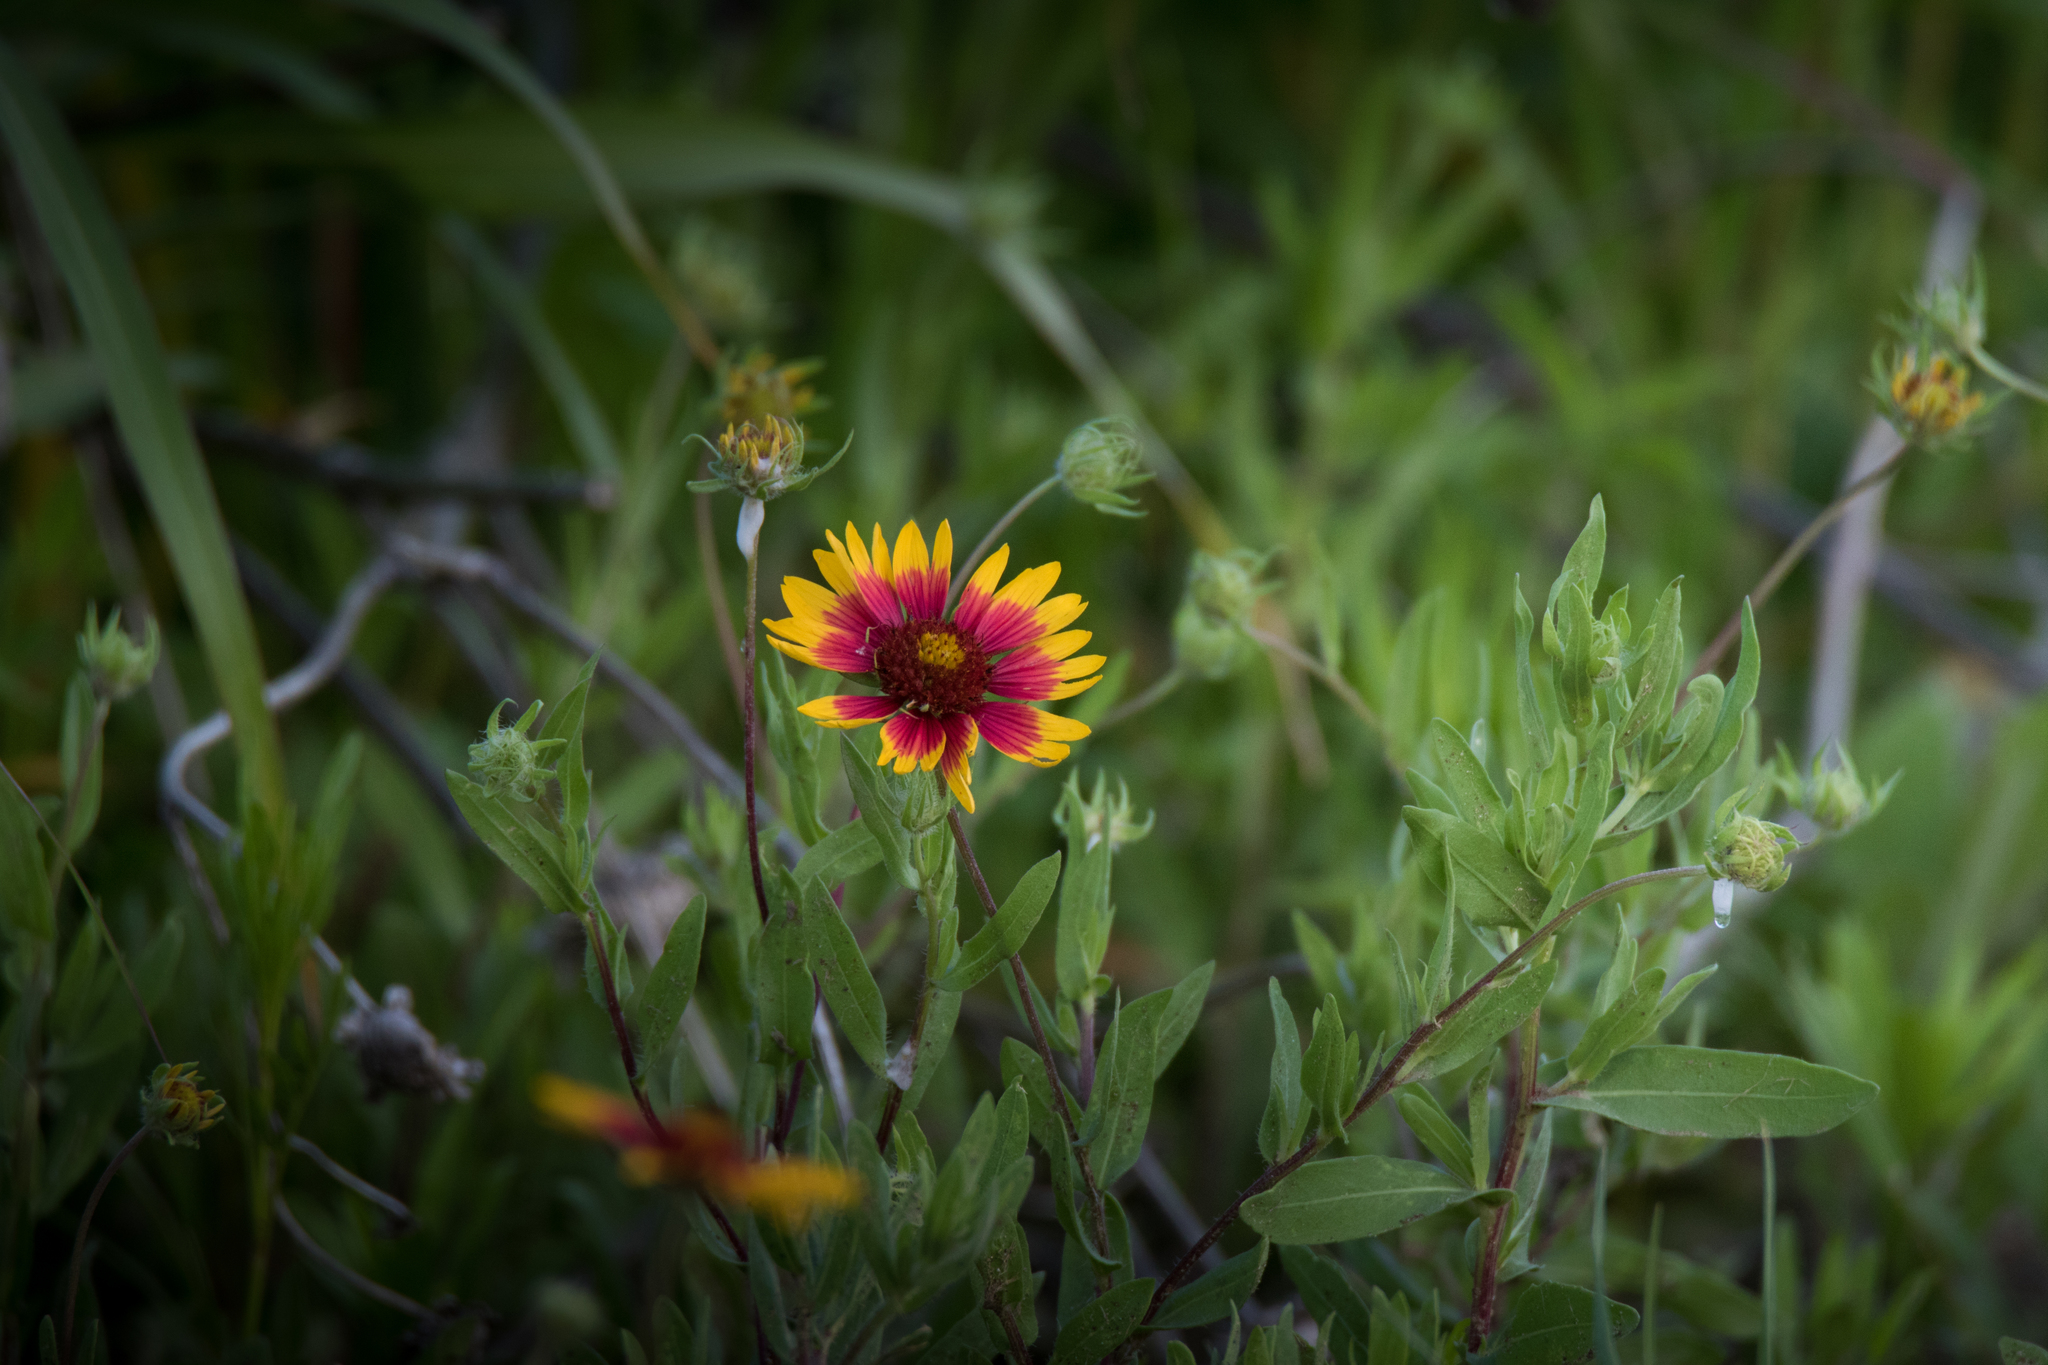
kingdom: Plantae
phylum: Tracheophyta
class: Magnoliopsida
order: Asterales
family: Asteraceae
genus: Gaillardia
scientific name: Gaillardia pulchella
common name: Firewheel
